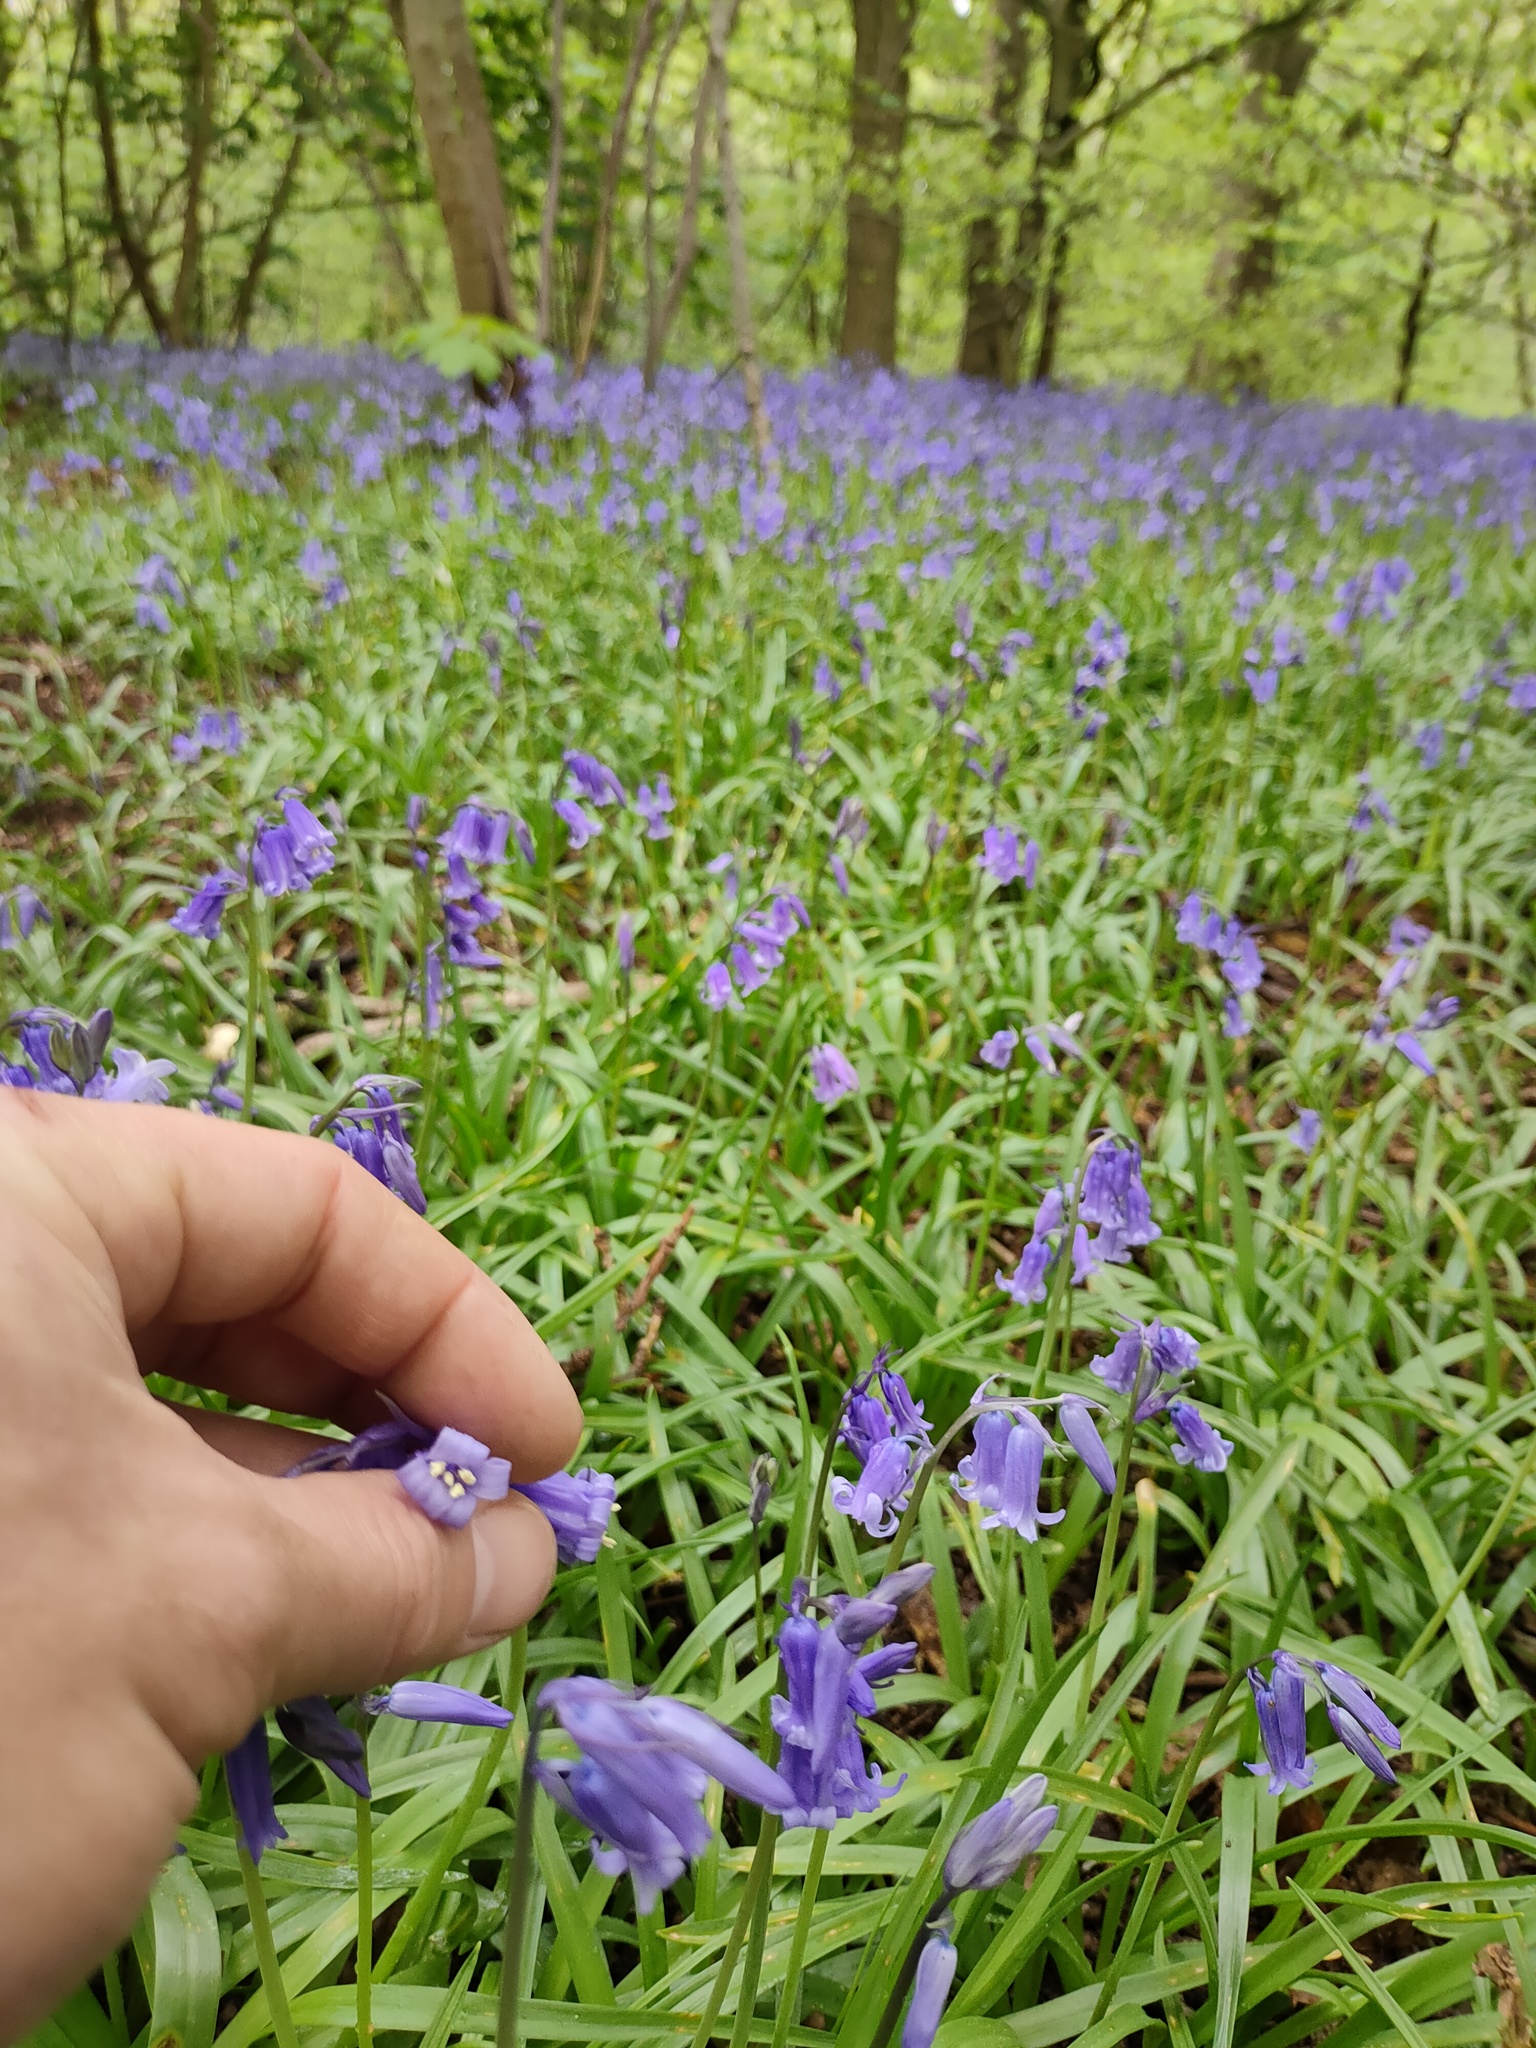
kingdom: Plantae
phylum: Tracheophyta
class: Liliopsida
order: Asparagales
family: Asparagaceae
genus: Hyacinthoides
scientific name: Hyacinthoides non-scripta
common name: Bluebell
